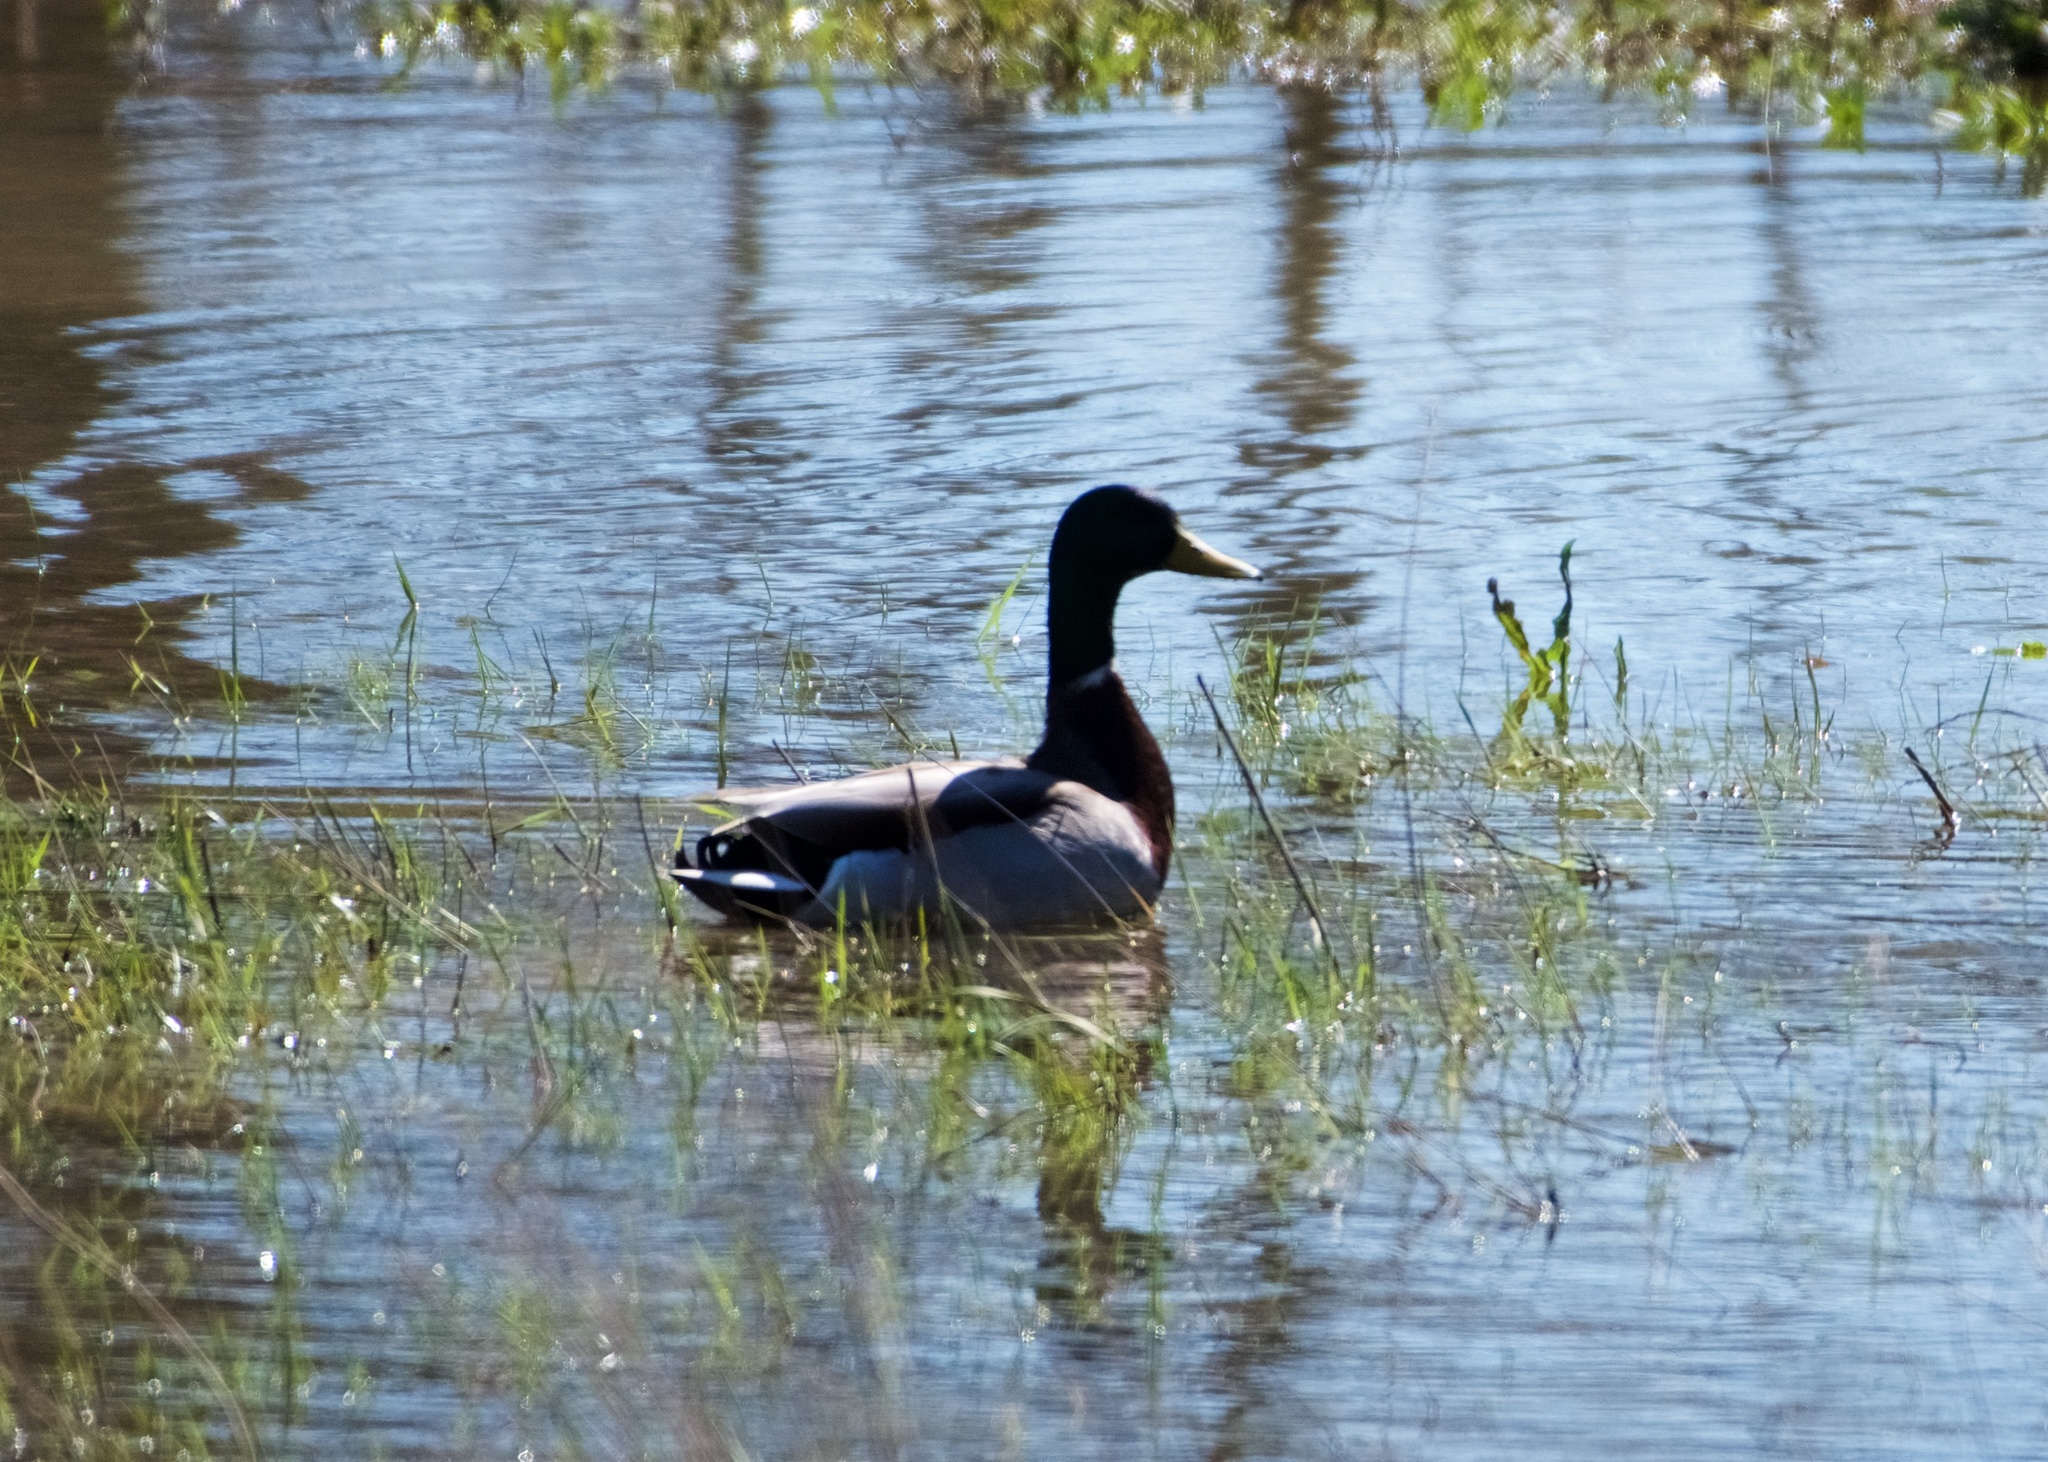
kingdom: Animalia
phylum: Chordata
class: Aves
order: Anseriformes
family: Anatidae
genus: Anas
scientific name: Anas platyrhynchos
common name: Mallard
